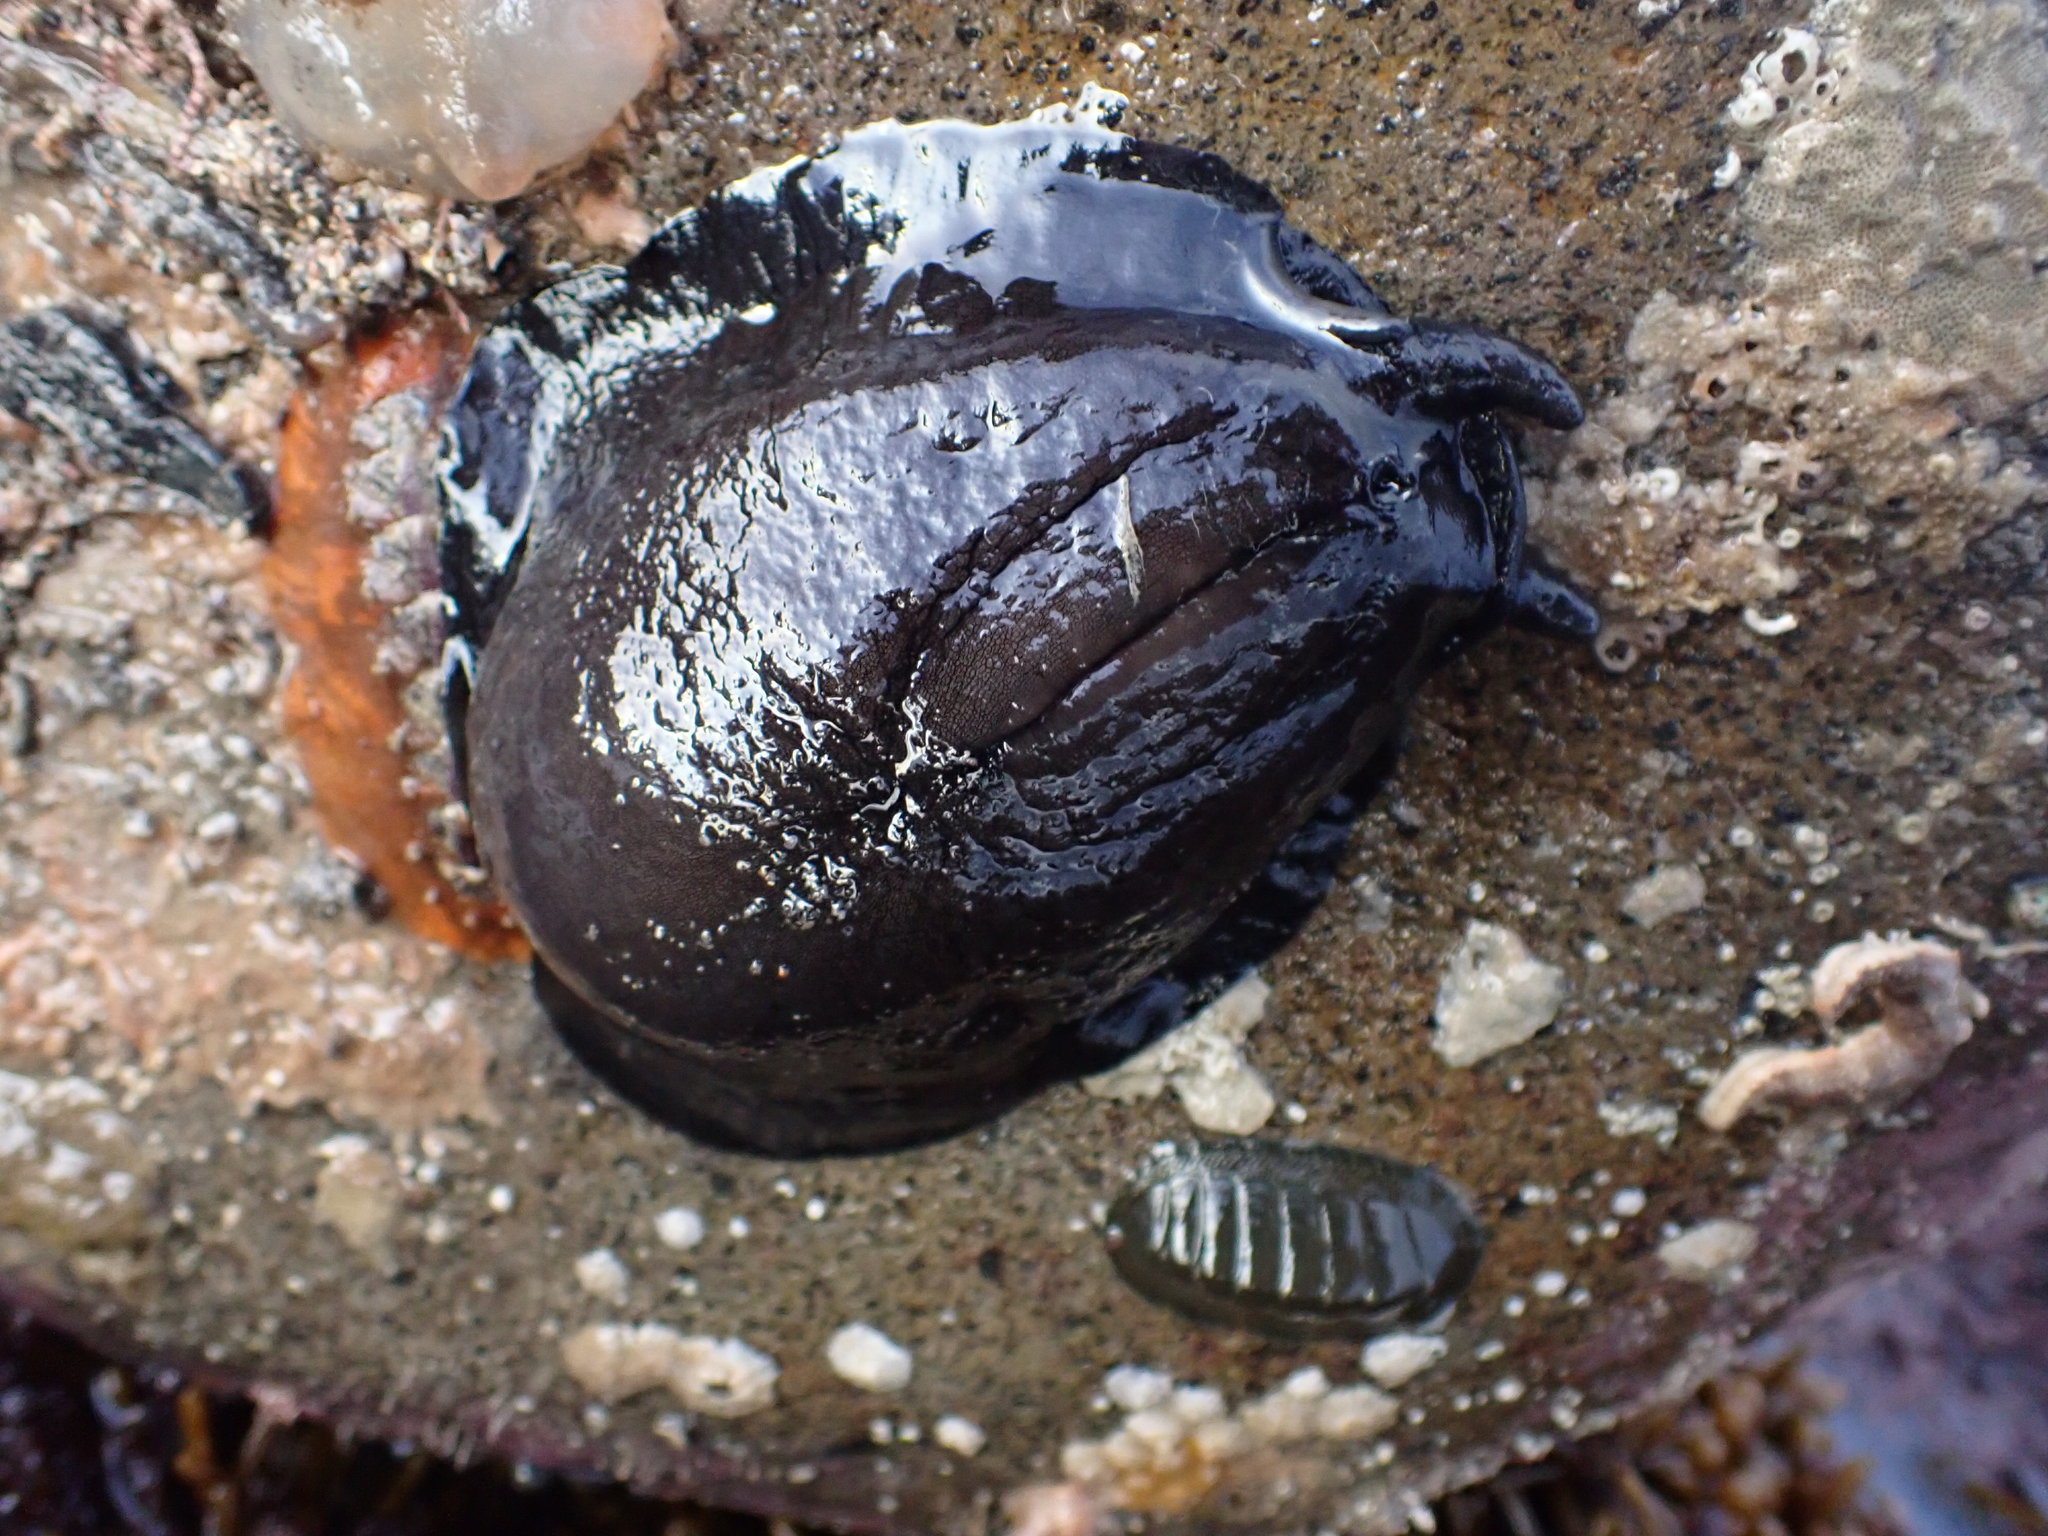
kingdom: Animalia
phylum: Mollusca
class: Gastropoda
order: Lepetellida
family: Fissurellidae
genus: Scutus
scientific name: Scutus breviculus
